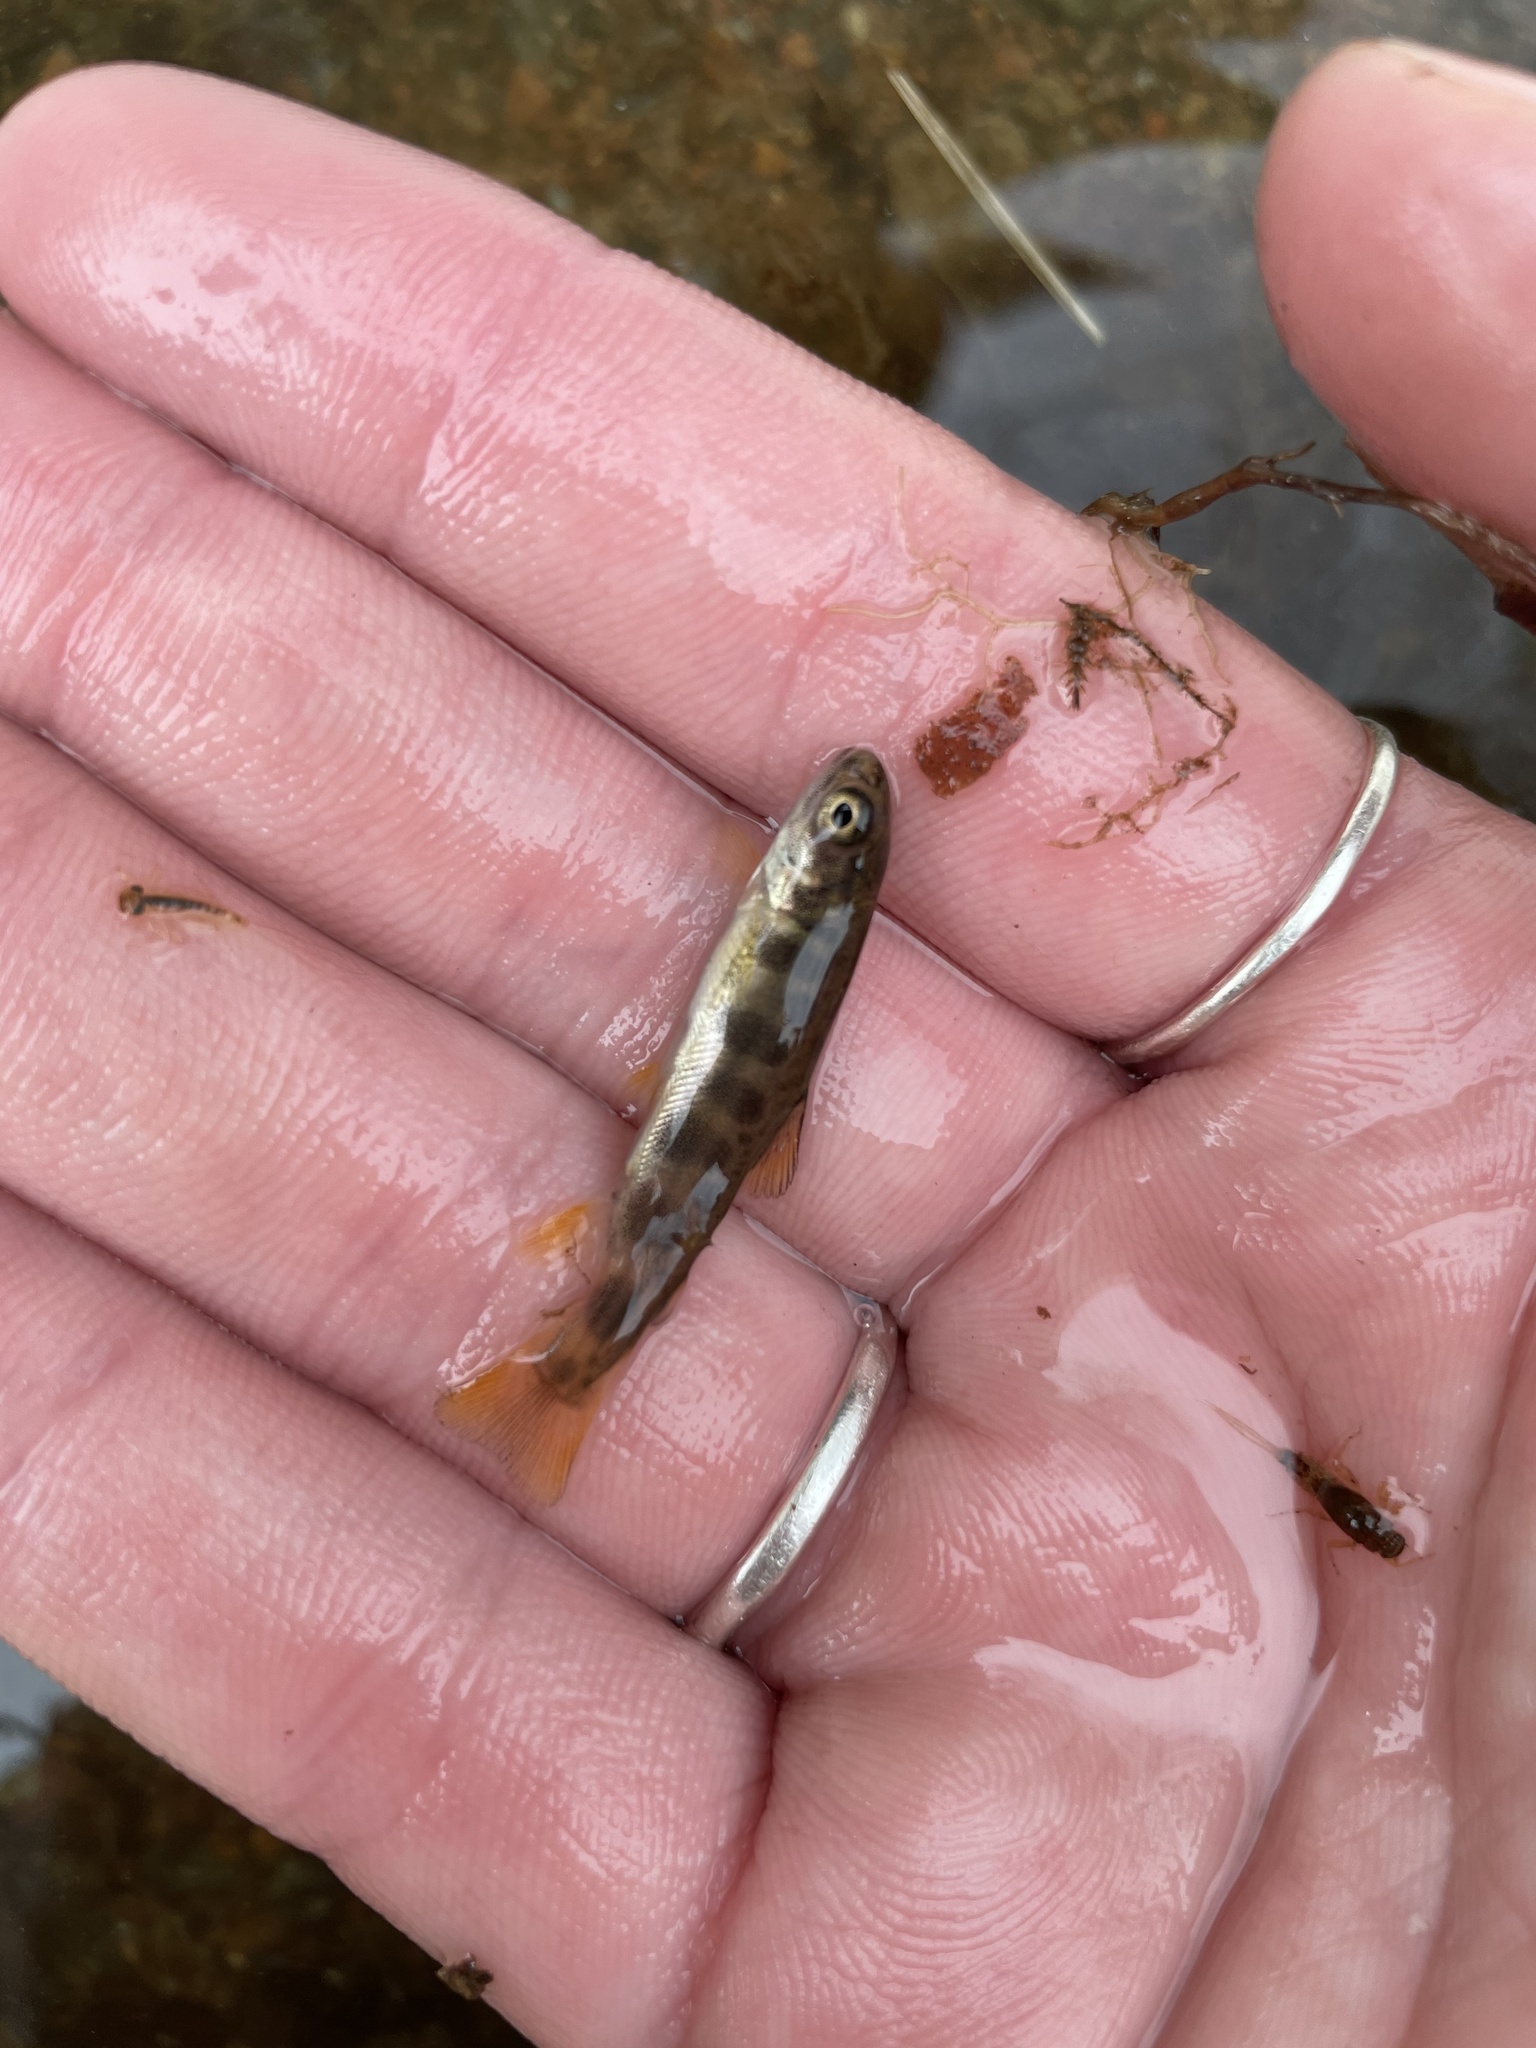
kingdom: Animalia
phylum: Chordata
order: Salmoniformes
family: Salmonidae
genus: Salvelinus
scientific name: Salvelinus fontinalis
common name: Brook trout
